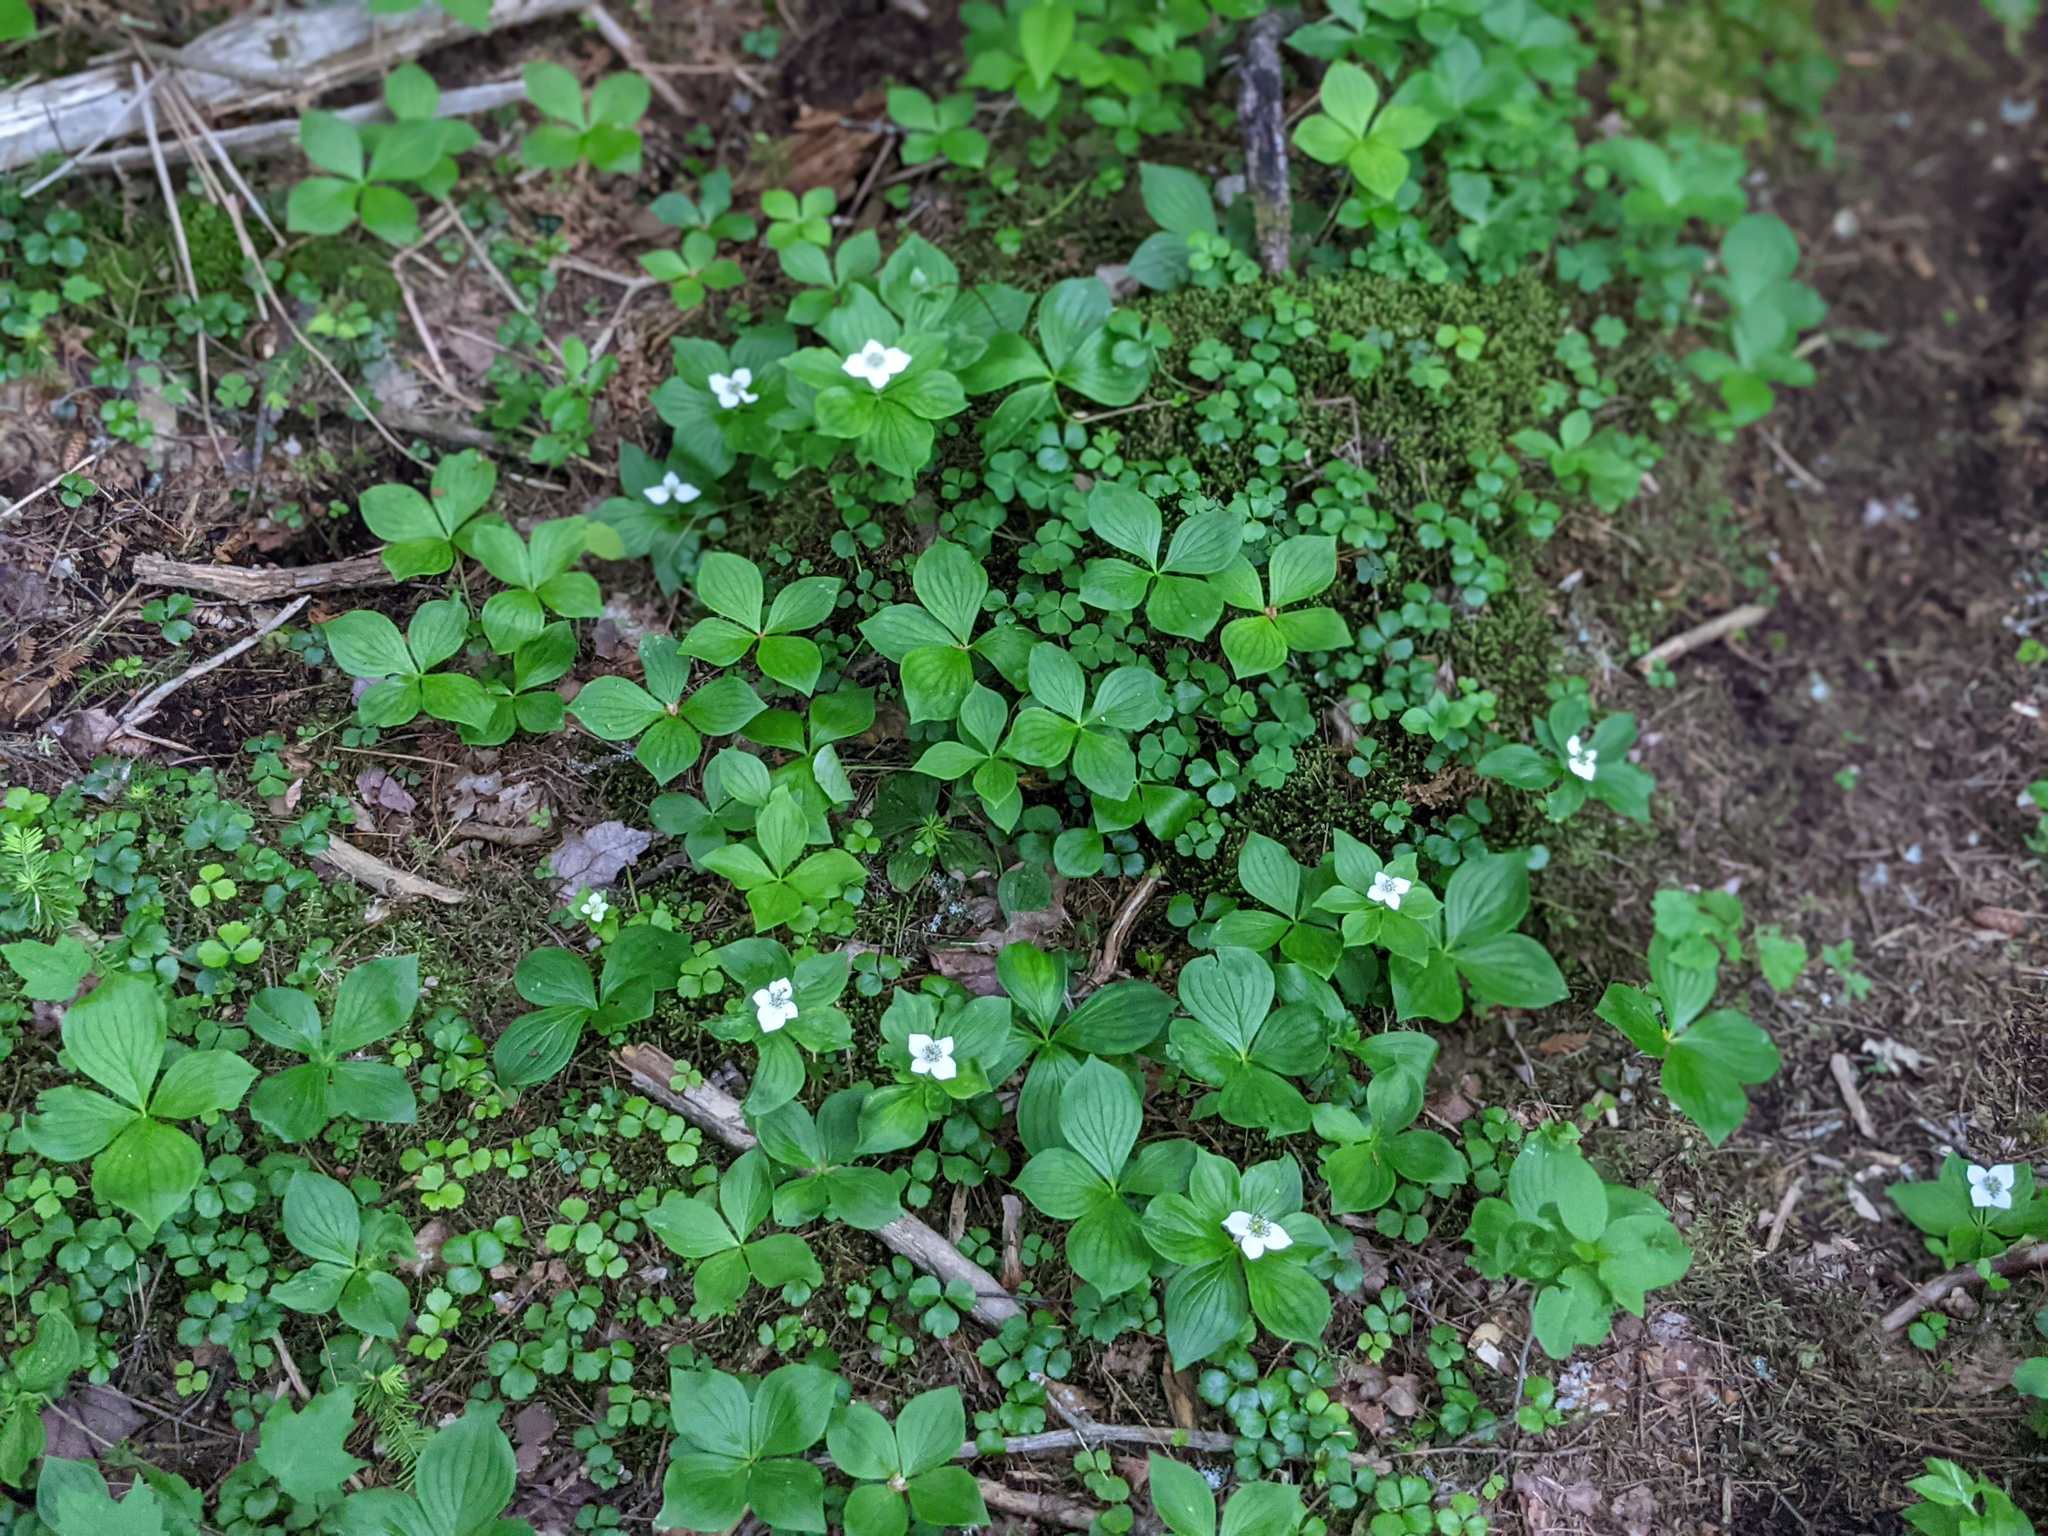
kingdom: Plantae
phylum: Tracheophyta
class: Magnoliopsida
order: Cornales
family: Cornaceae
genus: Cornus
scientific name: Cornus canadensis
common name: Creeping dogwood
